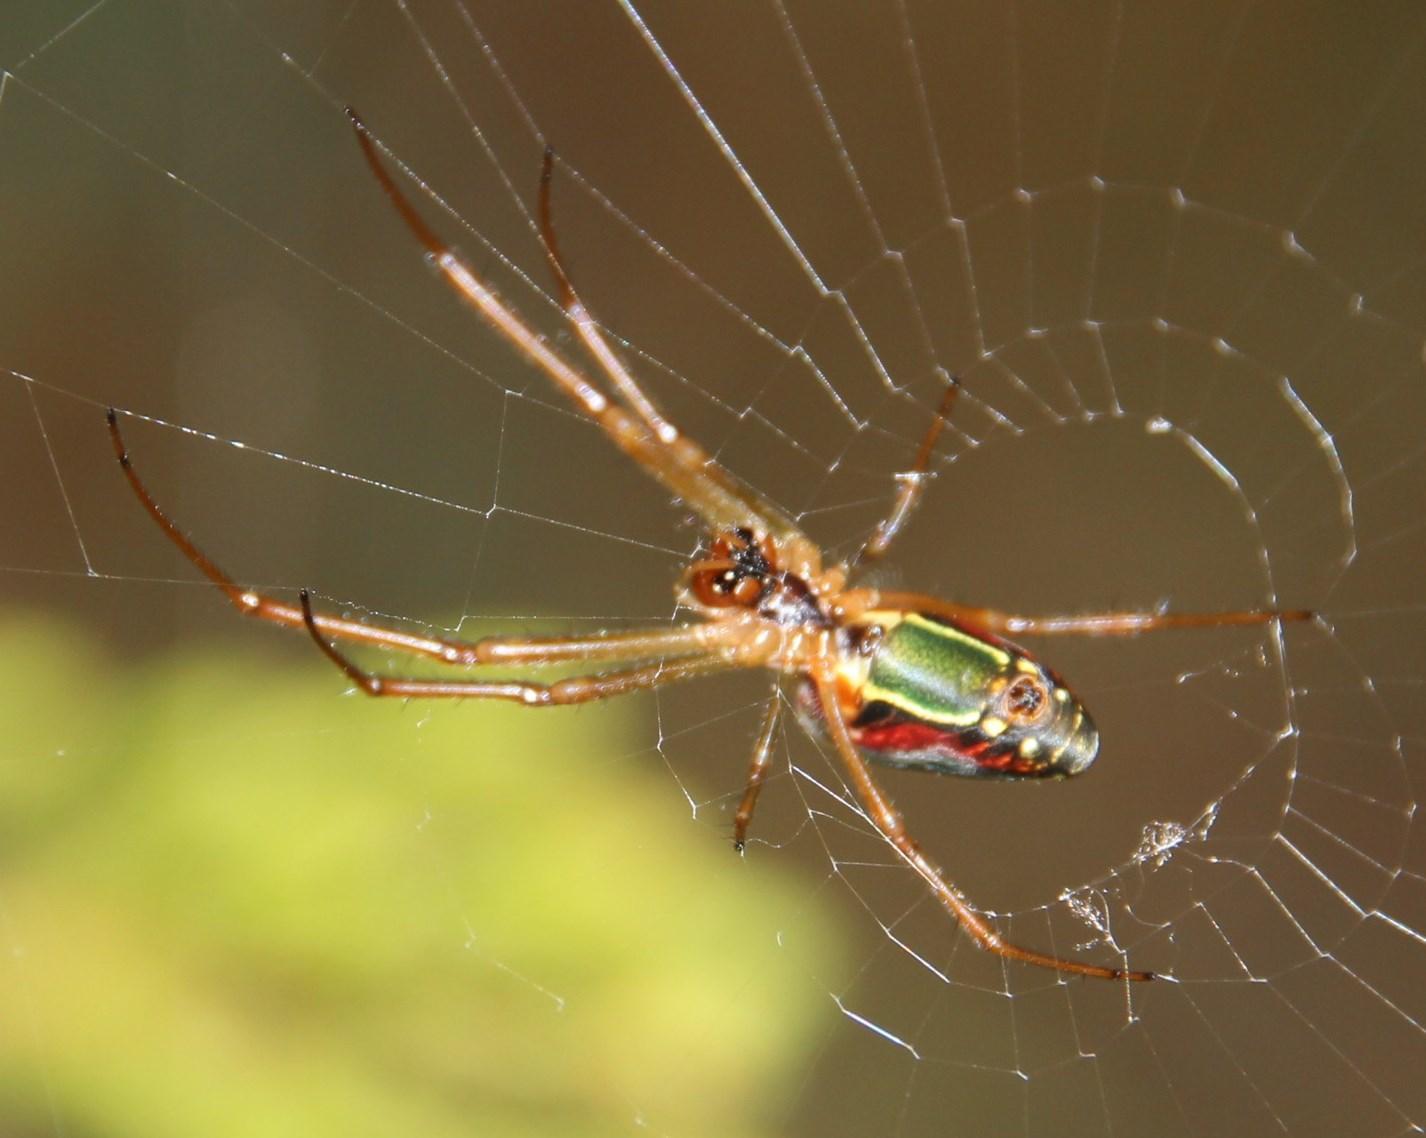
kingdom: Animalia
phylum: Arthropoda
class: Arachnida
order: Araneae
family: Tetragnathidae
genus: Leucauge
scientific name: Leucauge festiva
